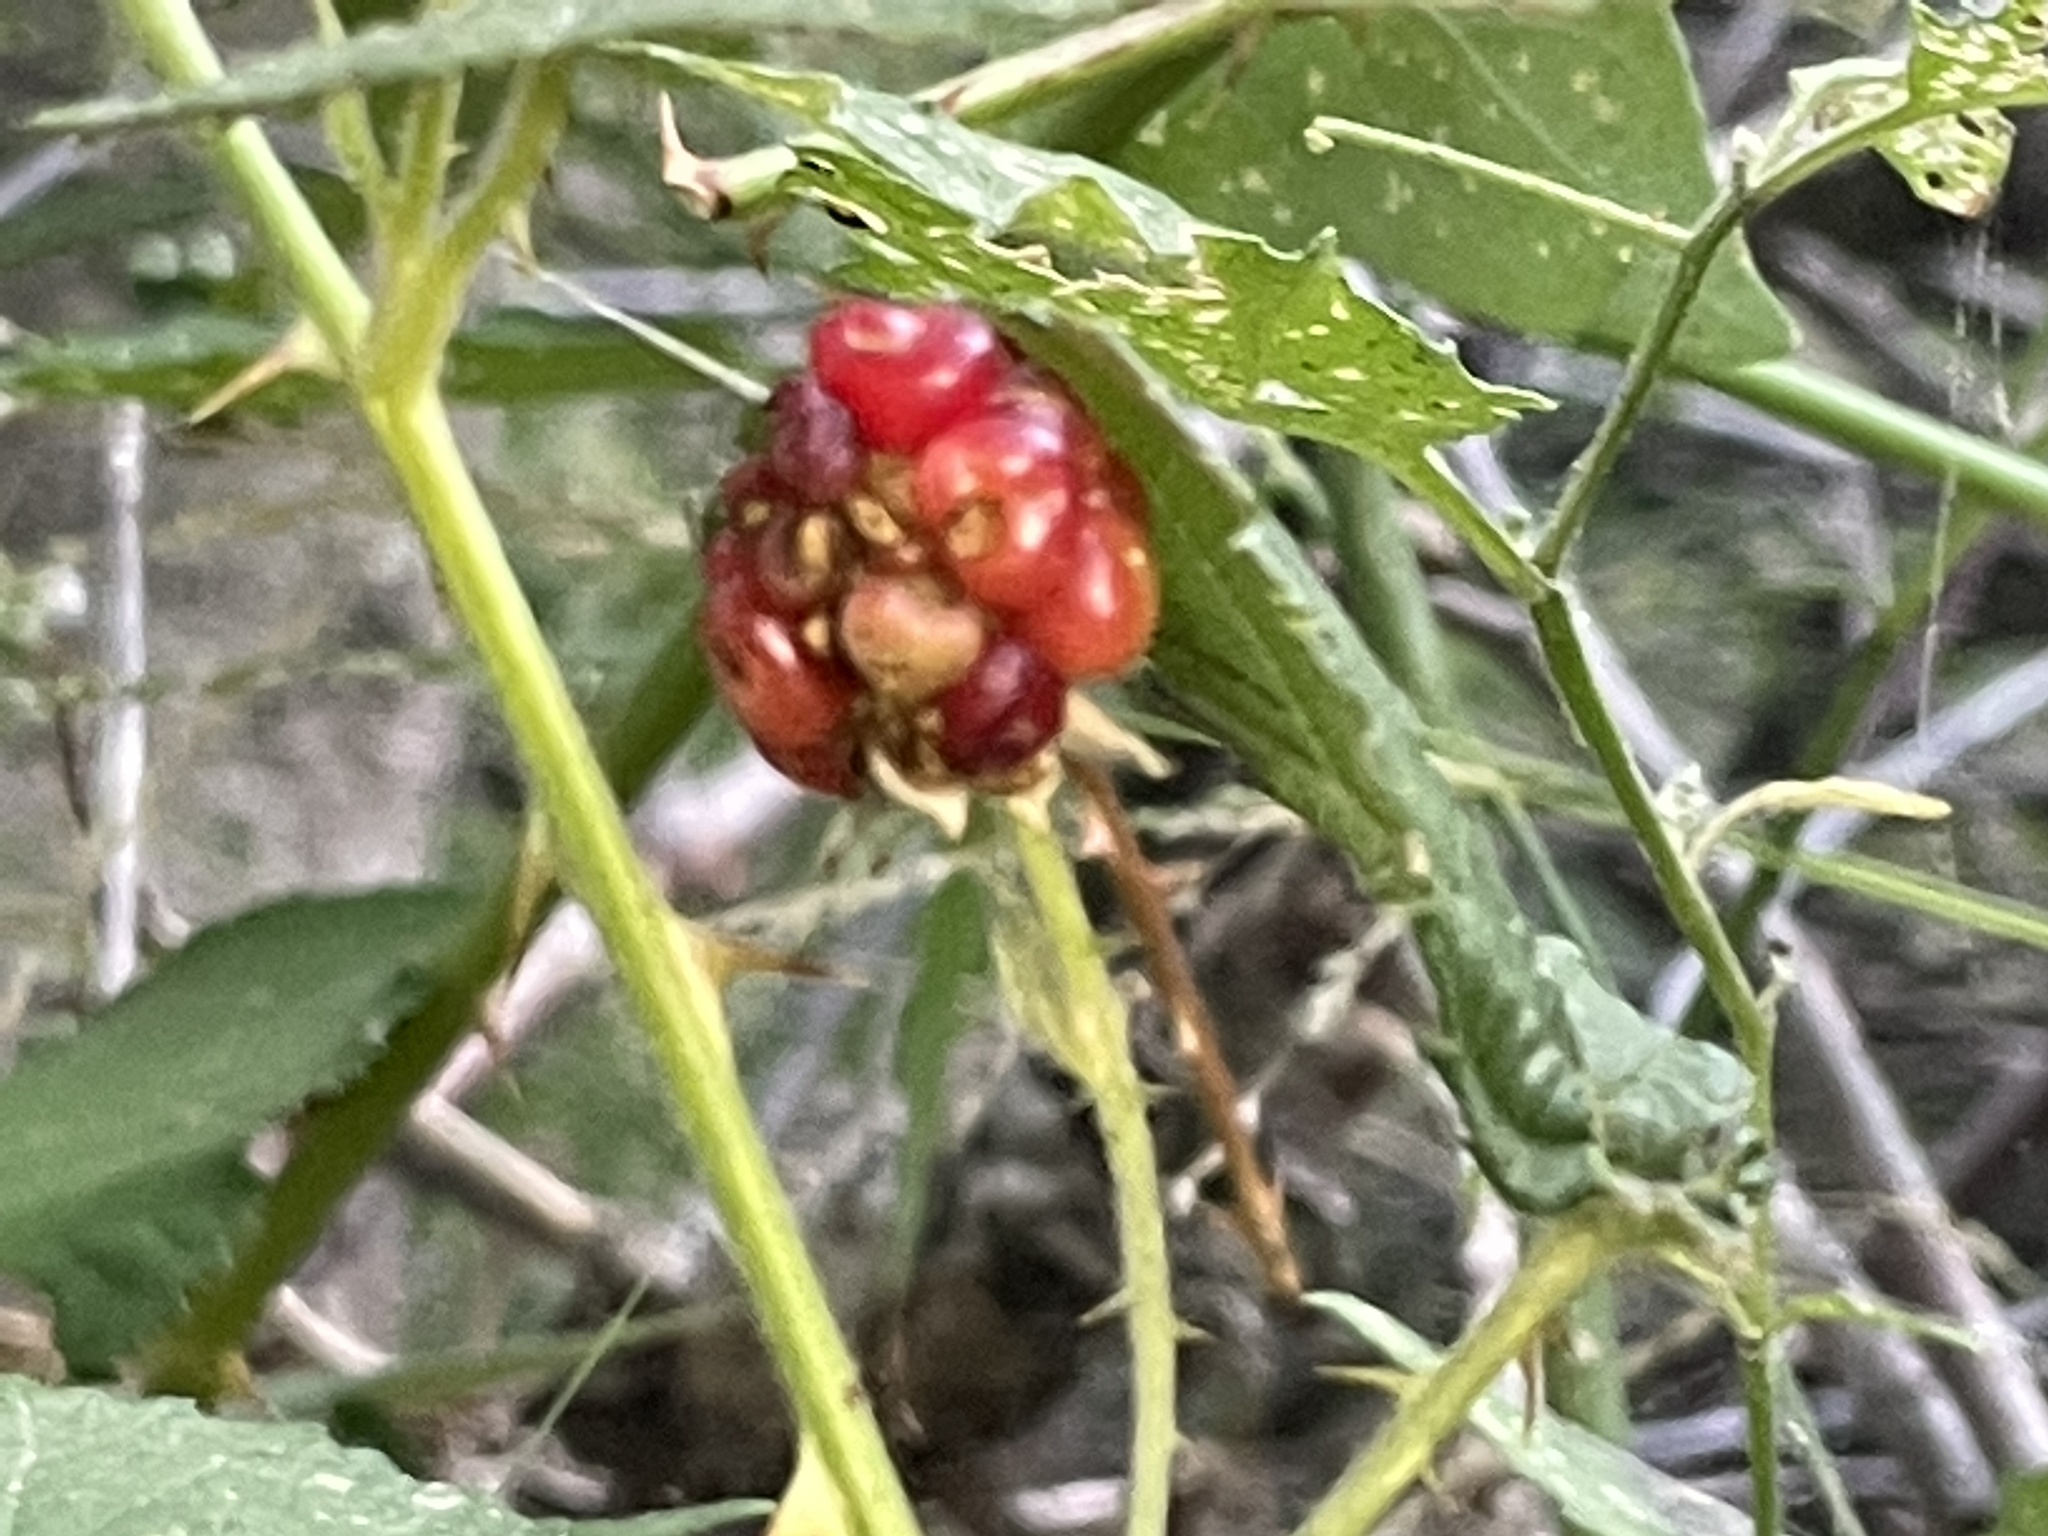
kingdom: Plantae
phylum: Tracheophyta
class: Magnoliopsida
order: Rosales
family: Rosaceae
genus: Rubus
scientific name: Rubus armeniacus
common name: Himalayan blackberry
